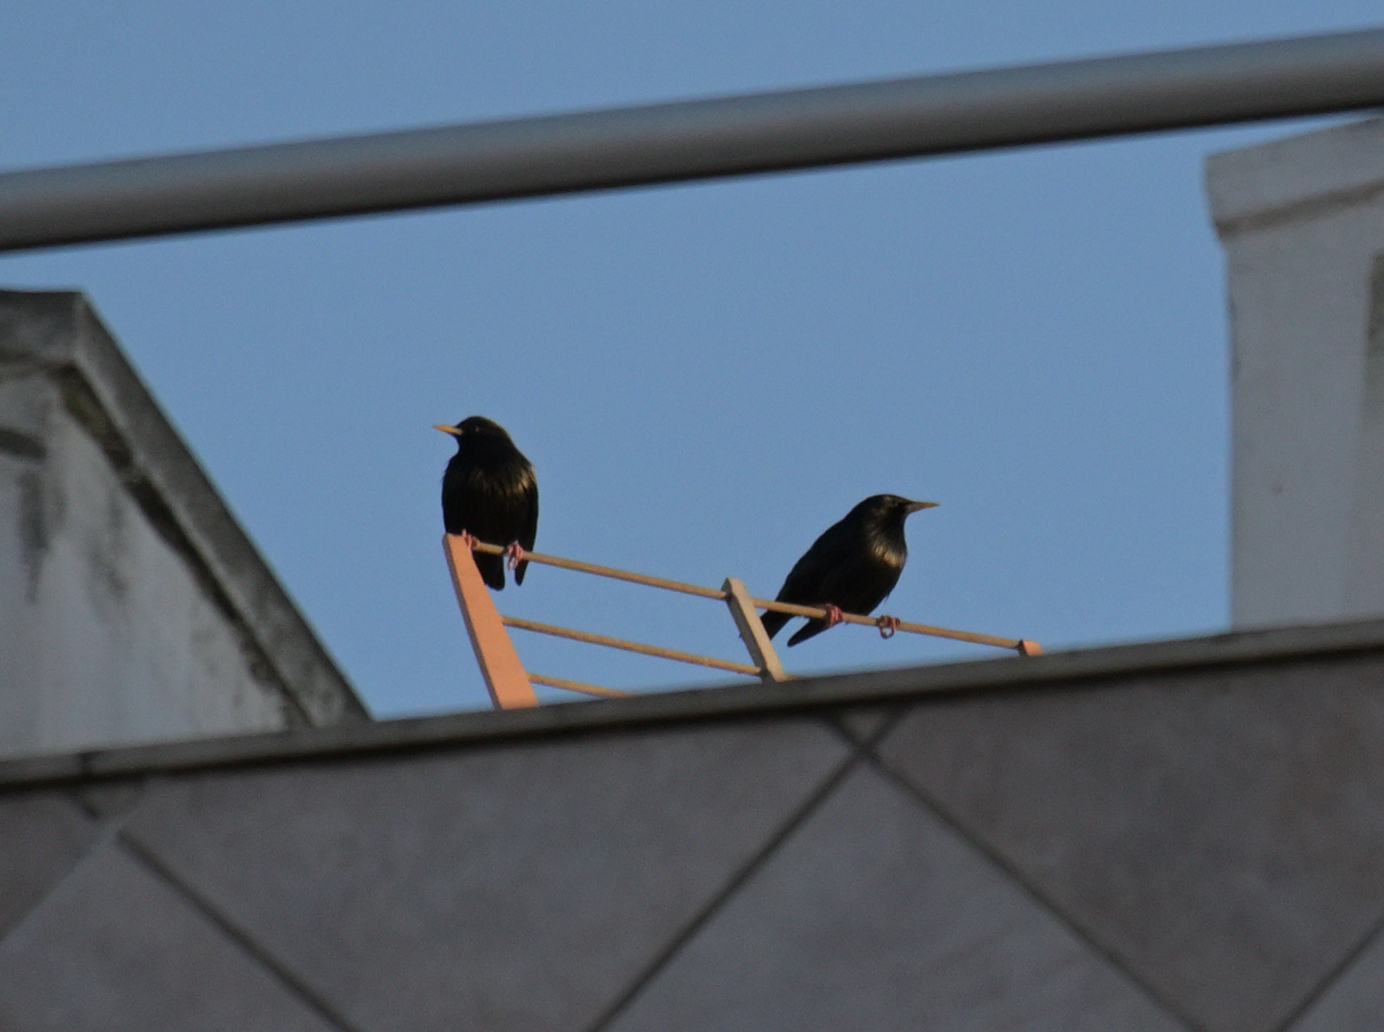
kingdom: Animalia
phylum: Chordata
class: Aves
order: Passeriformes
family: Sturnidae
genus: Sturnus
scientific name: Sturnus unicolor
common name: Spotless starling
